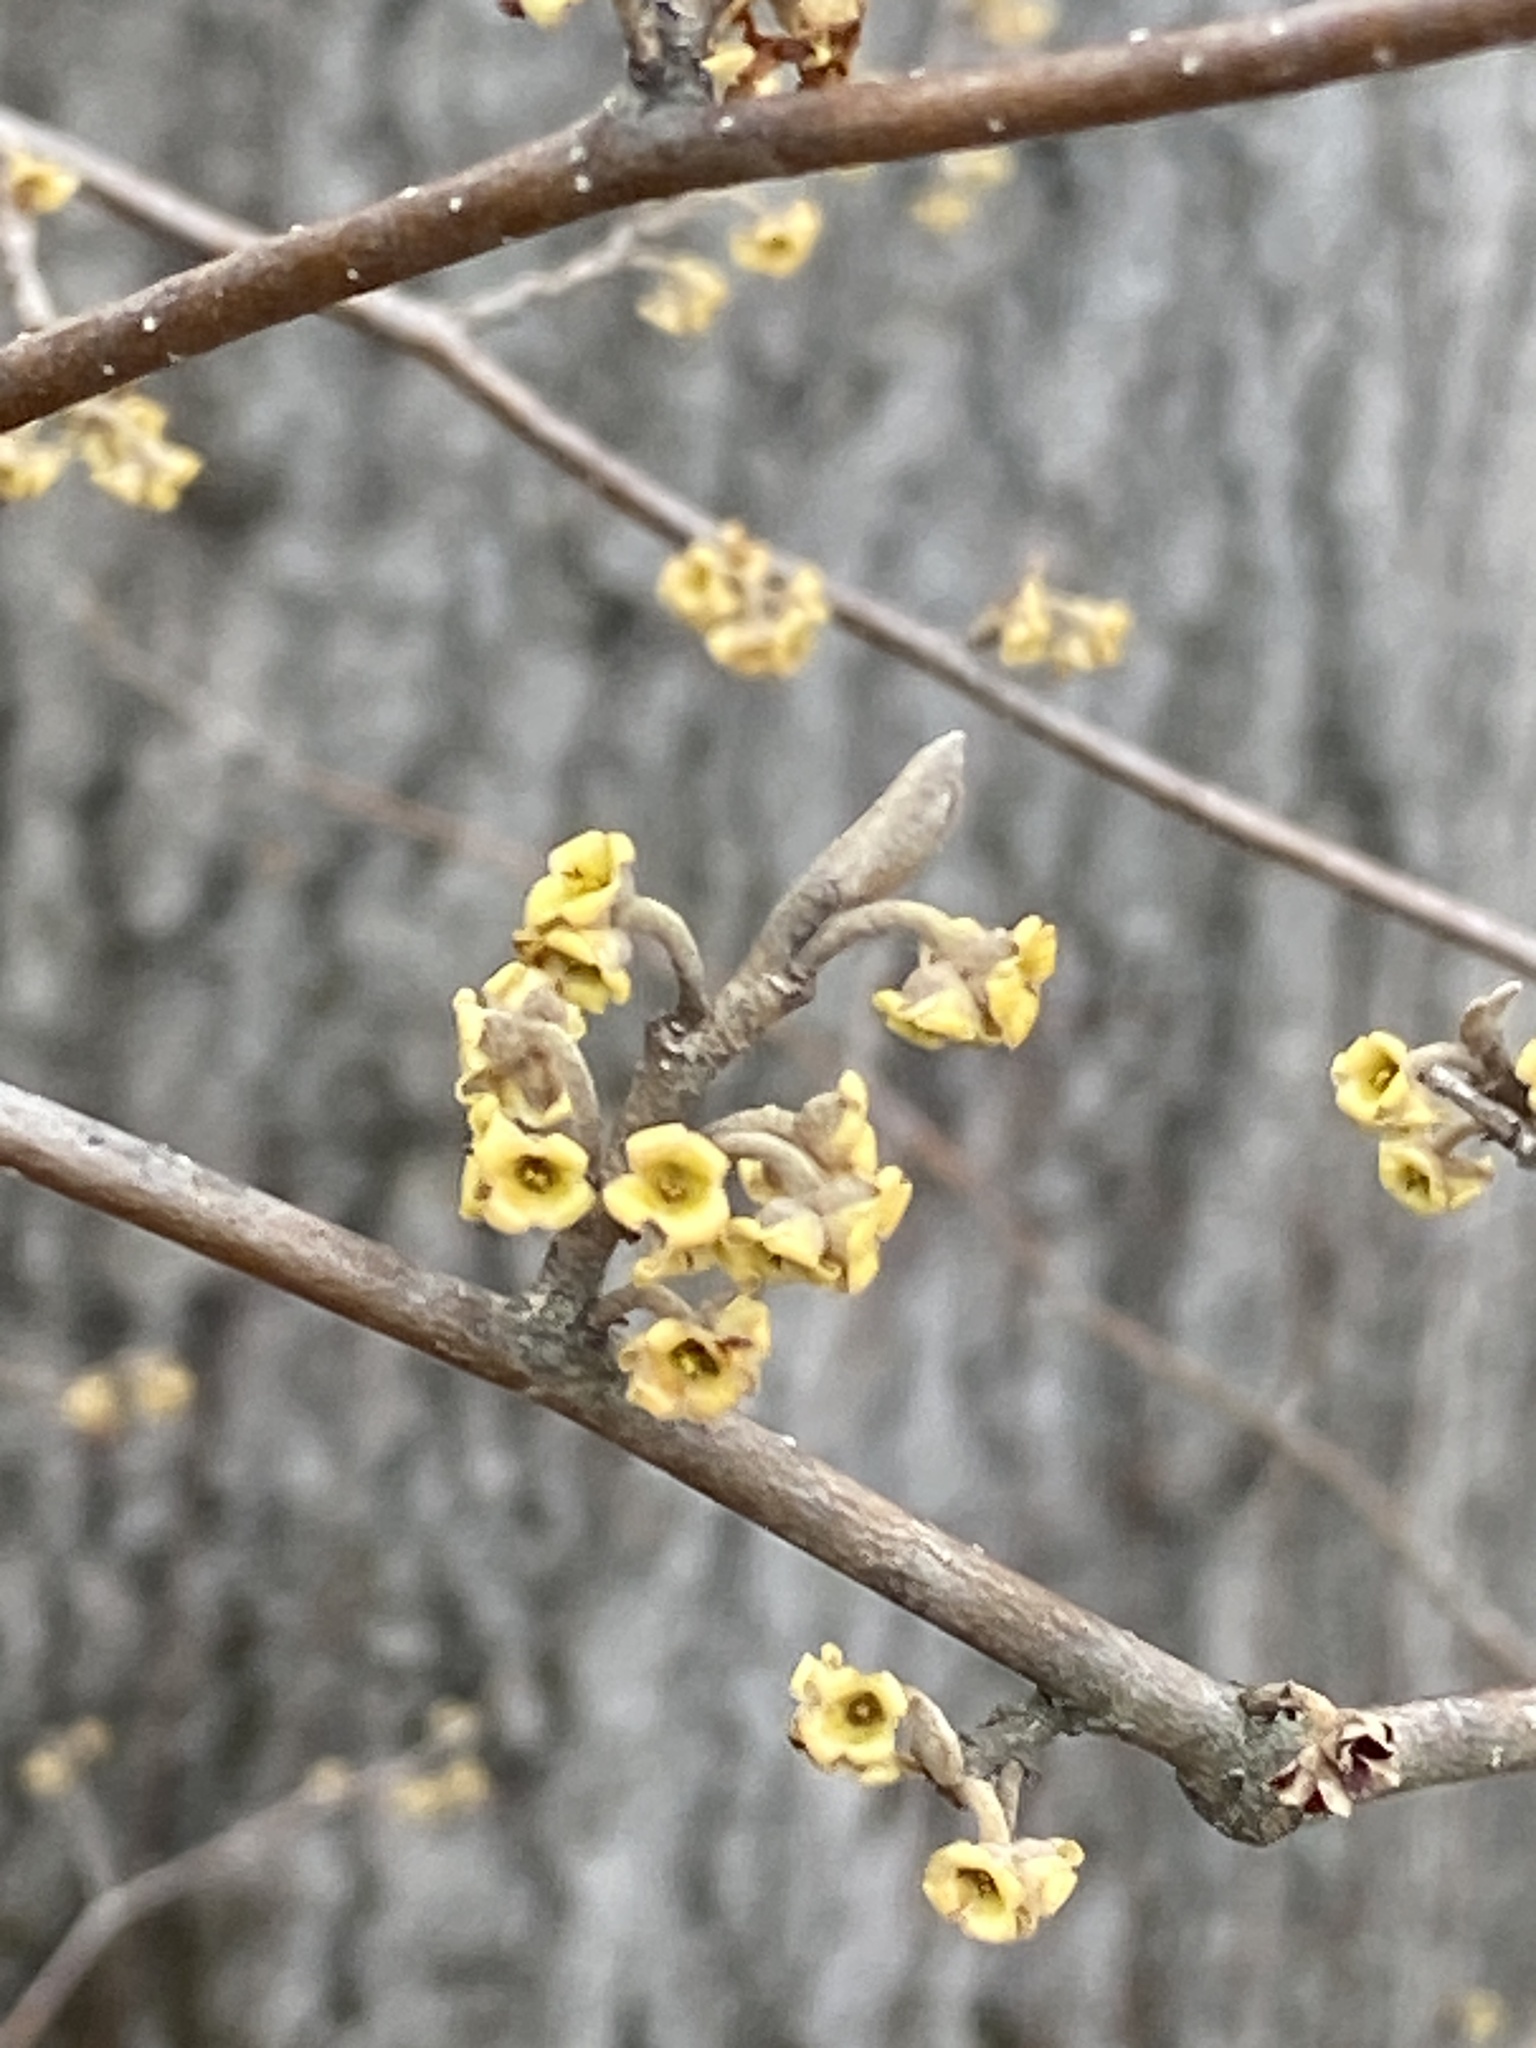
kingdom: Plantae
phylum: Tracheophyta
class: Magnoliopsida
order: Saxifragales
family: Hamamelidaceae
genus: Hamamelis
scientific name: Hamamelis virginiana
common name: Witch-hazel
